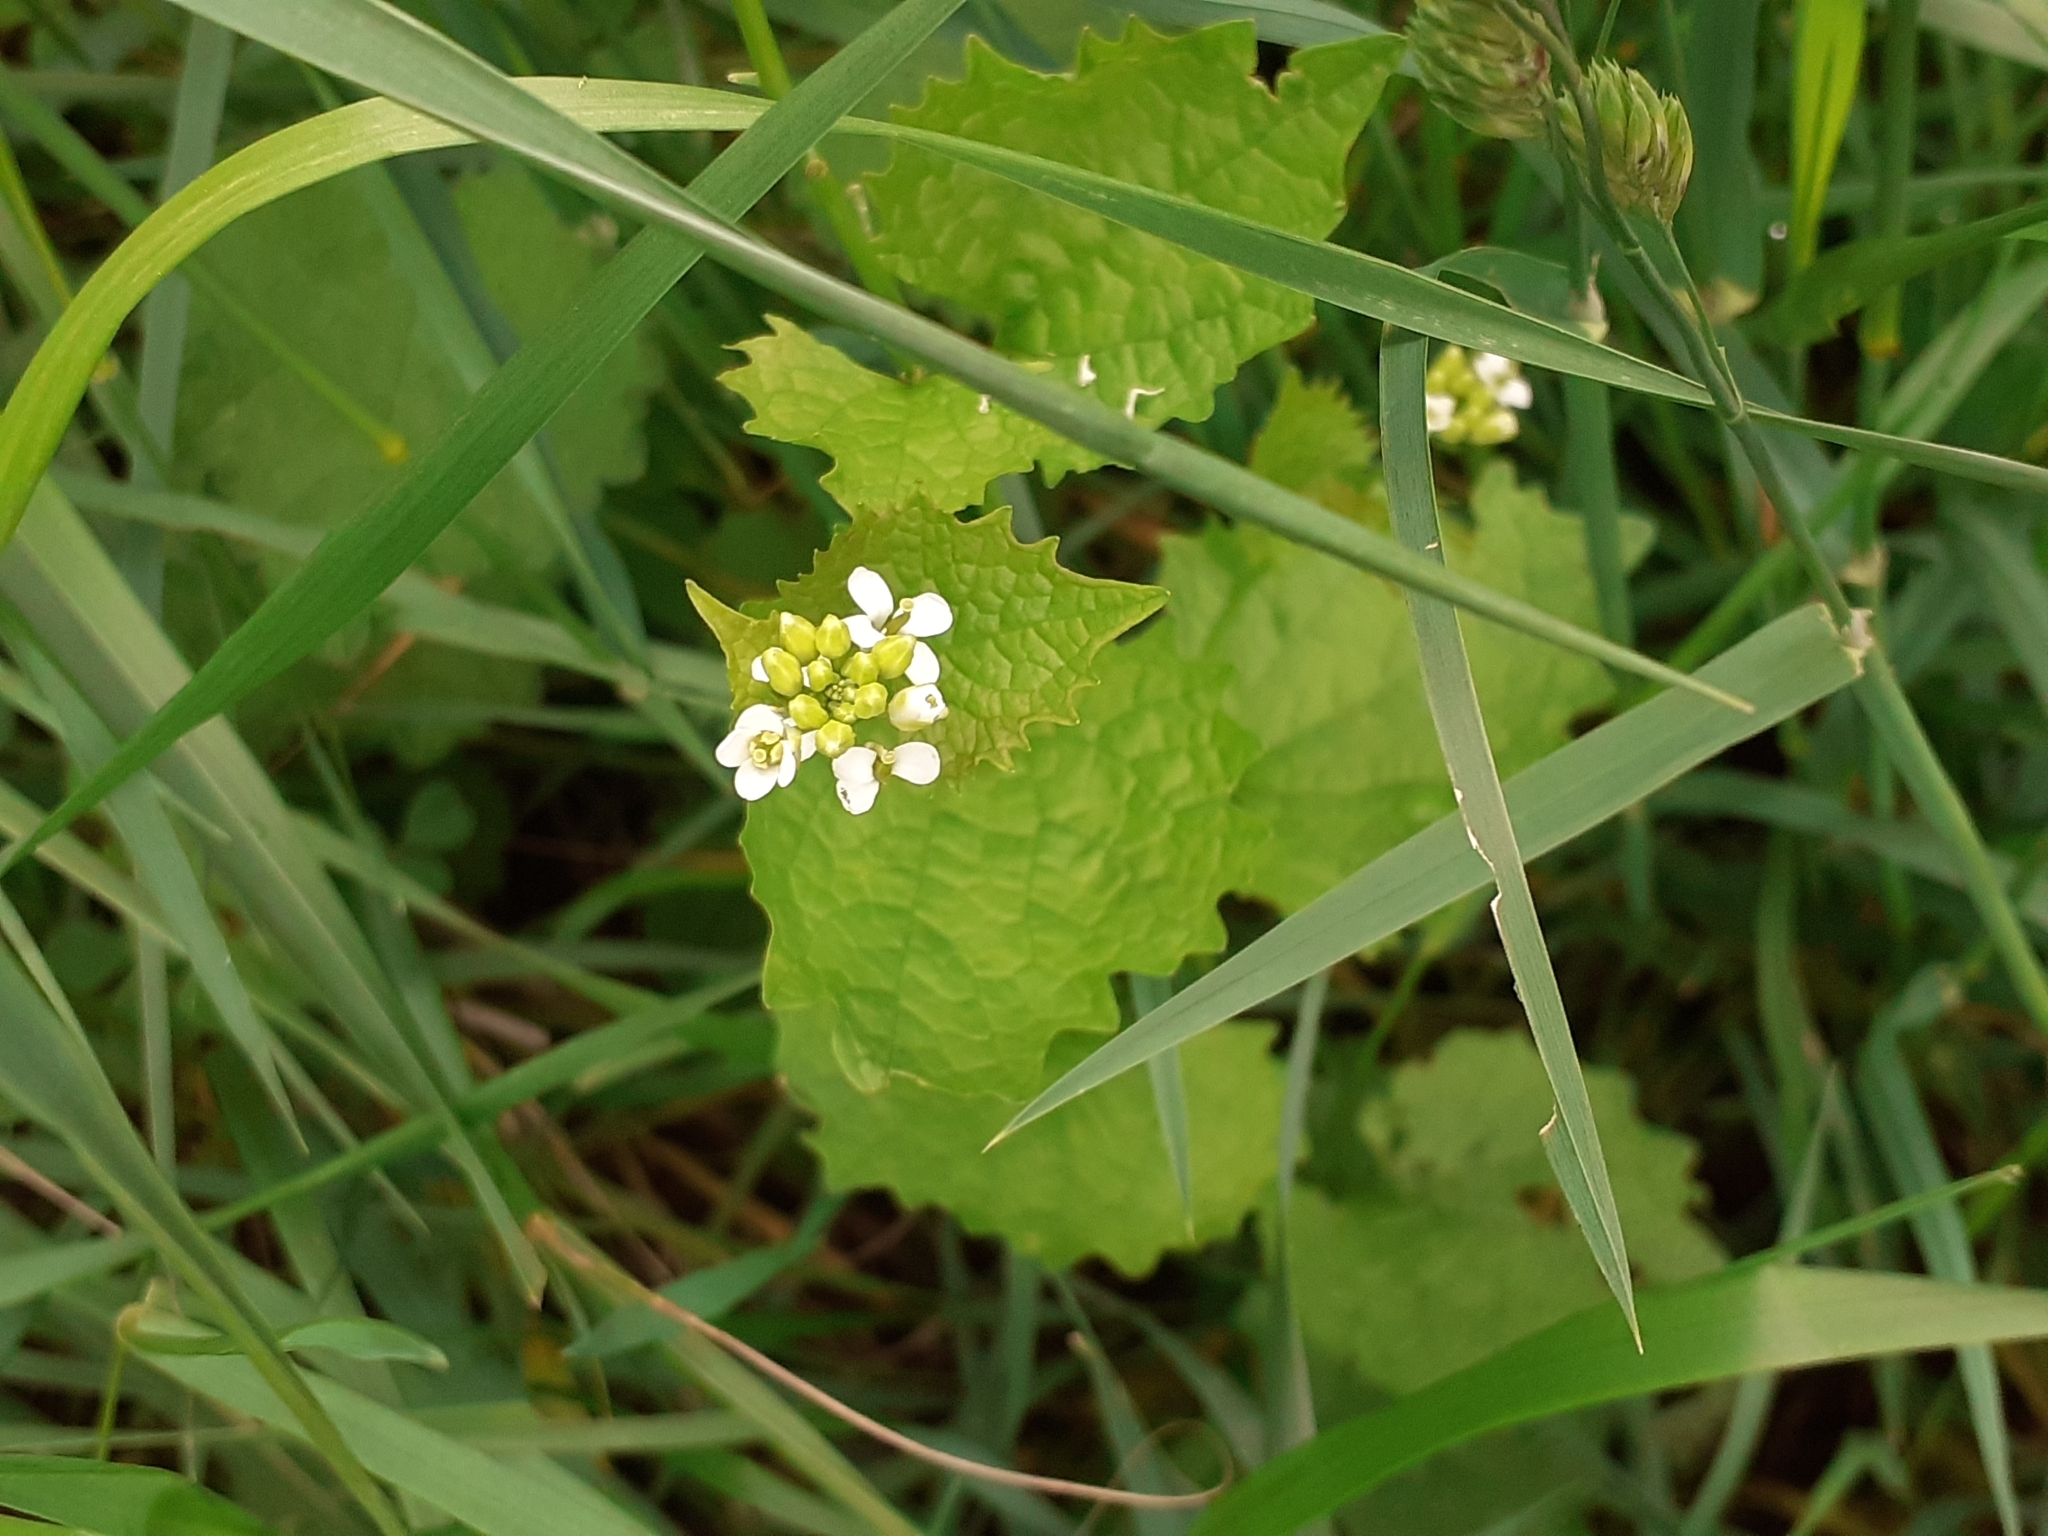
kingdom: Plantae
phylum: Tracheophyta
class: Magnoliopsida
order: Brassicales
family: Brassicaceae
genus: Alliaria
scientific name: Alliaria petiolata
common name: Garlic mustard
